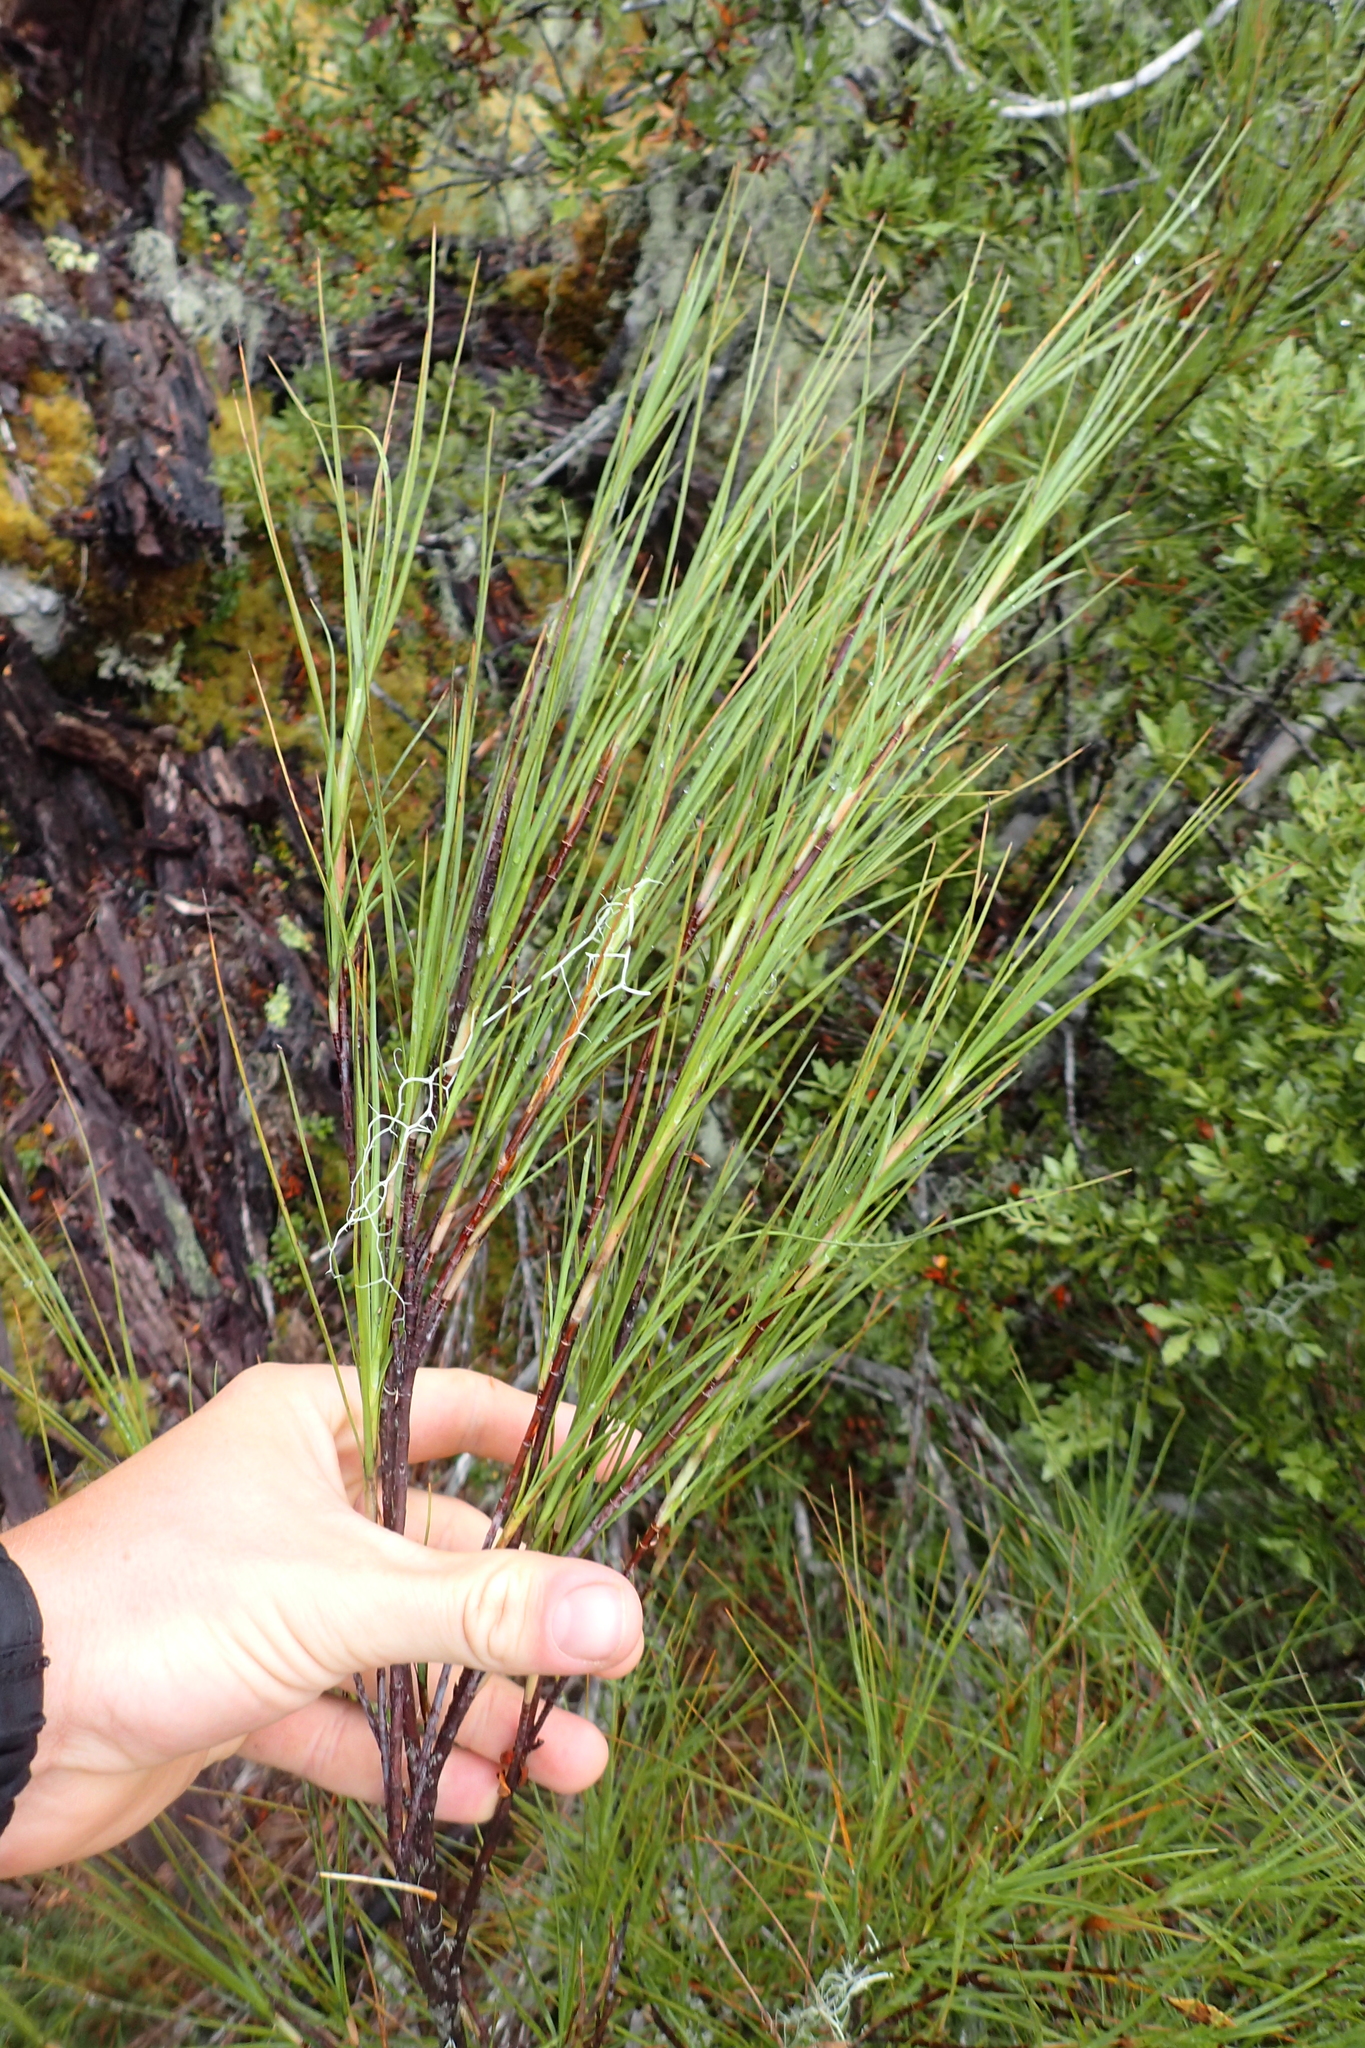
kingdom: Plantae
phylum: Tracheophyta
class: Magnoliopsida
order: Ericales
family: Ericaceae
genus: Dracophyllum
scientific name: Dracophyllum filifolium
